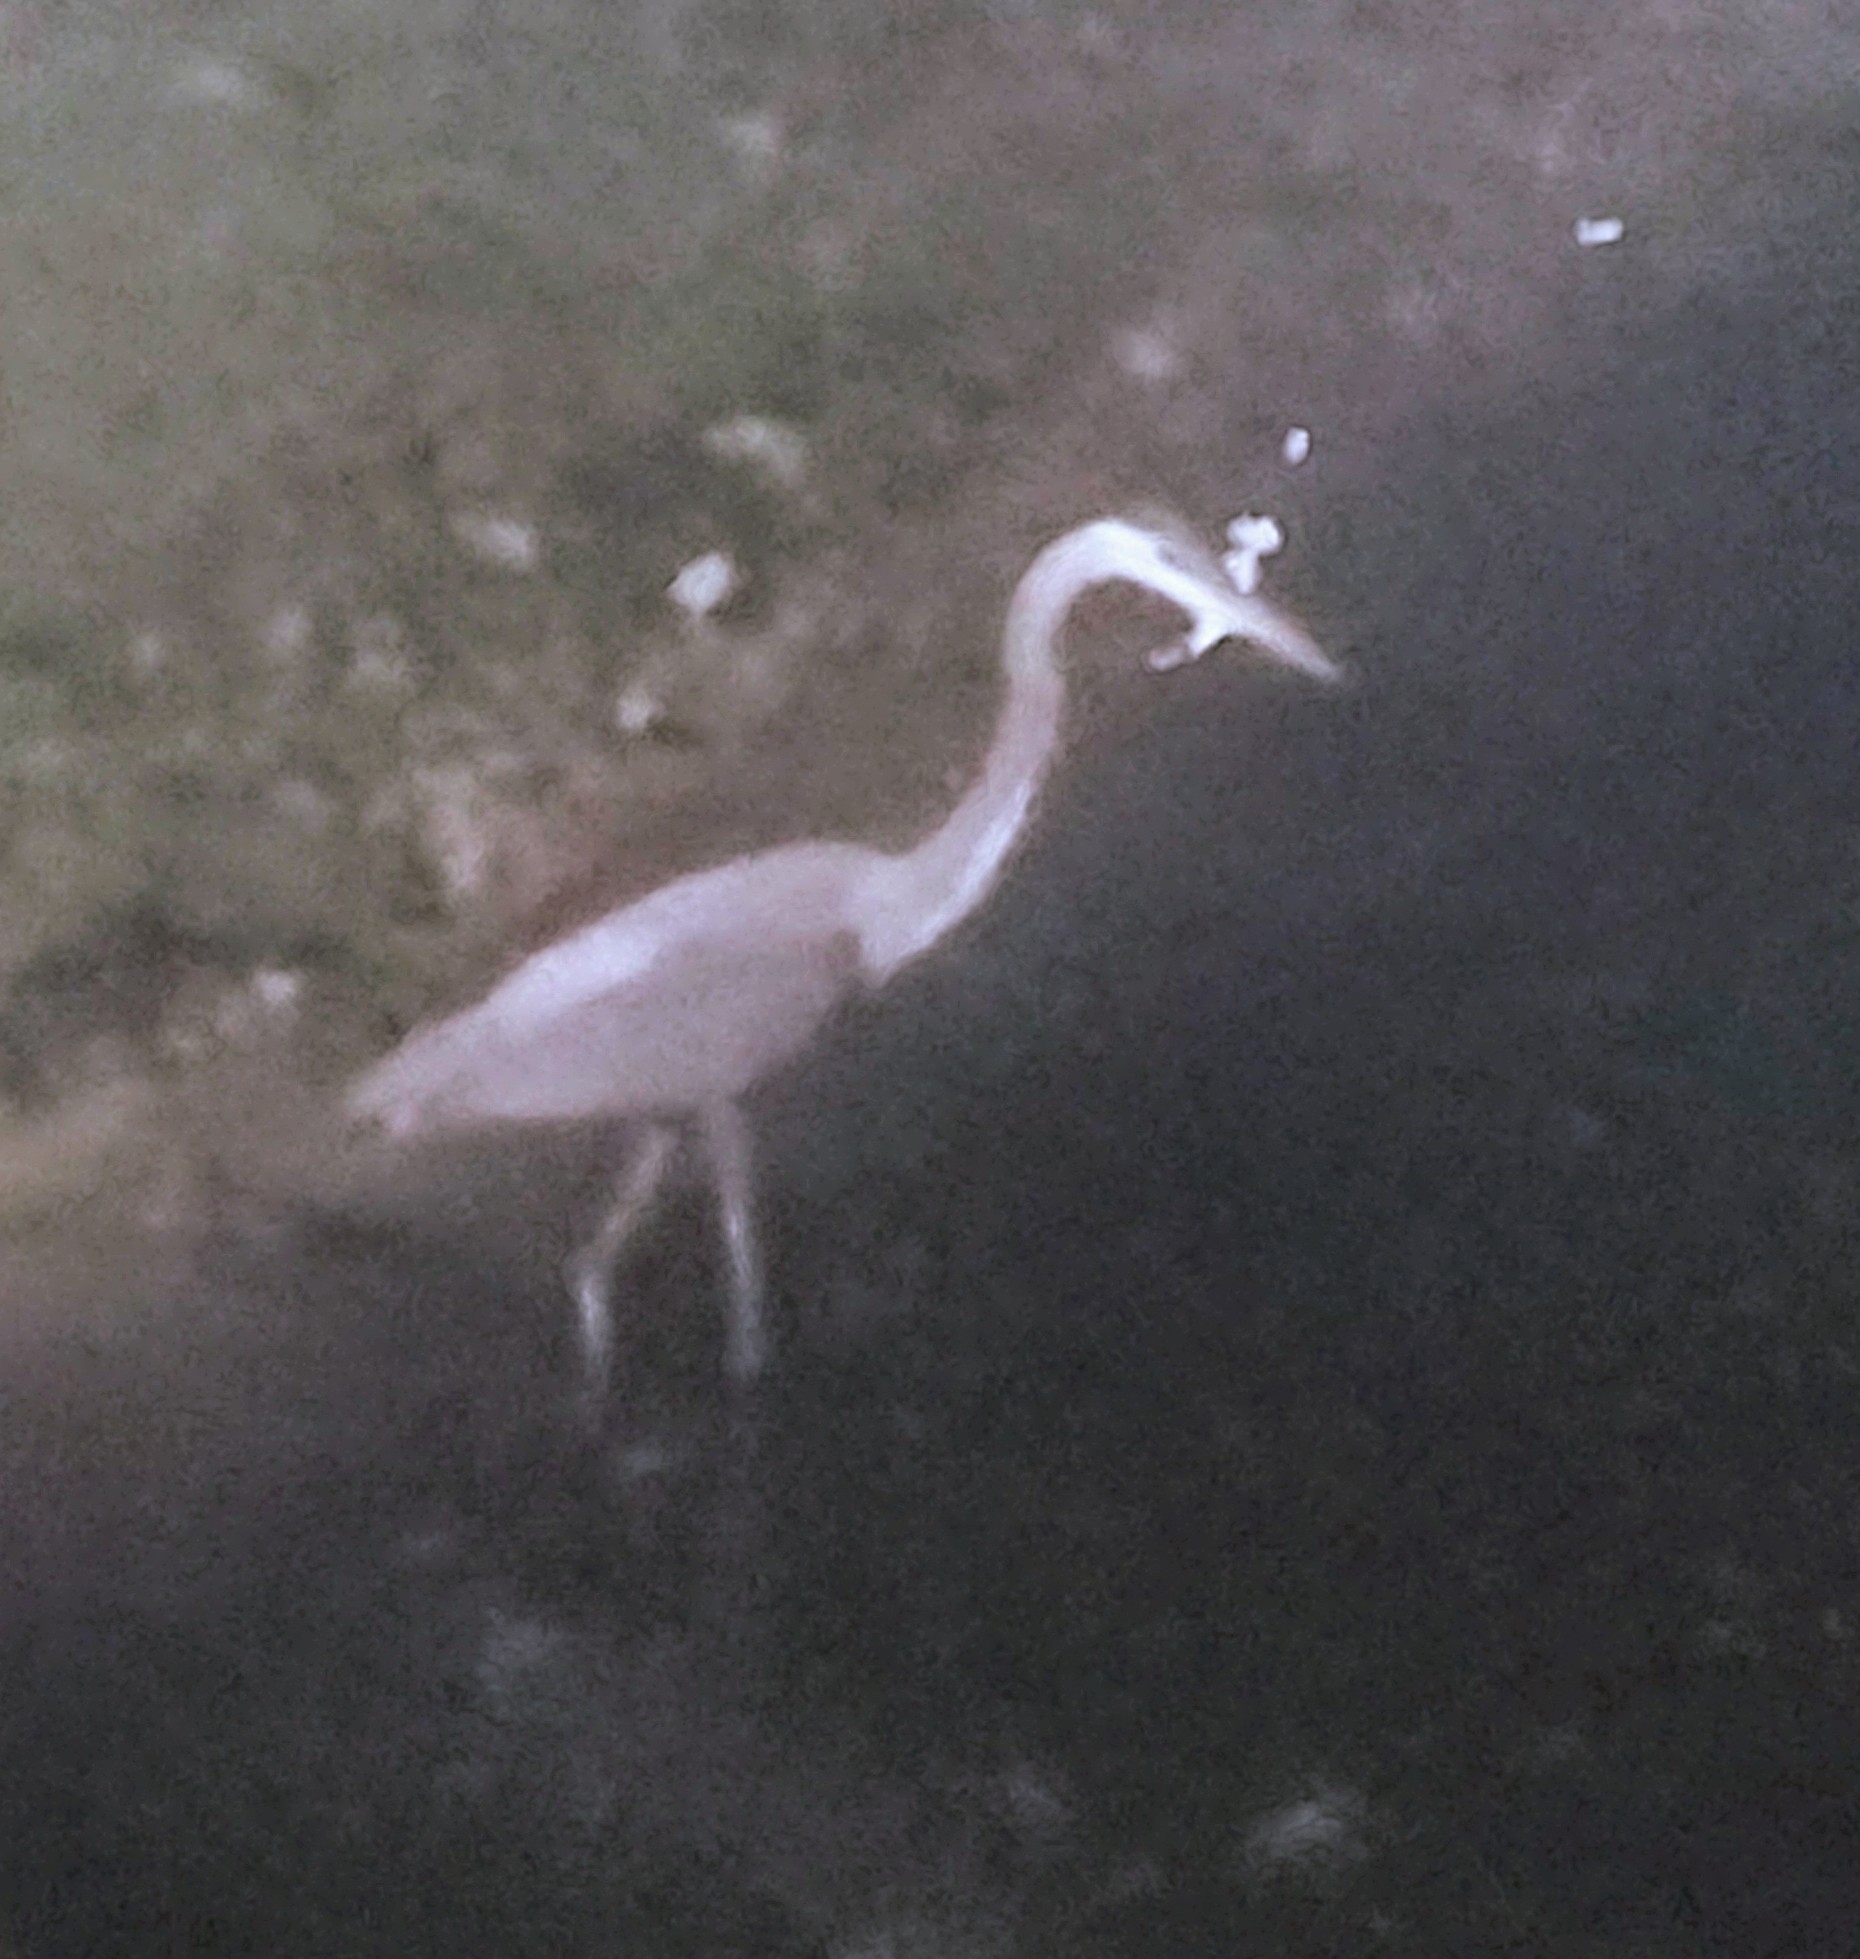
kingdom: Animalia
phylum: Chordata
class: Aves
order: Pelecaniformes
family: Ardeidae
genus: Ardea
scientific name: Ardea herodias
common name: Great blue heron
